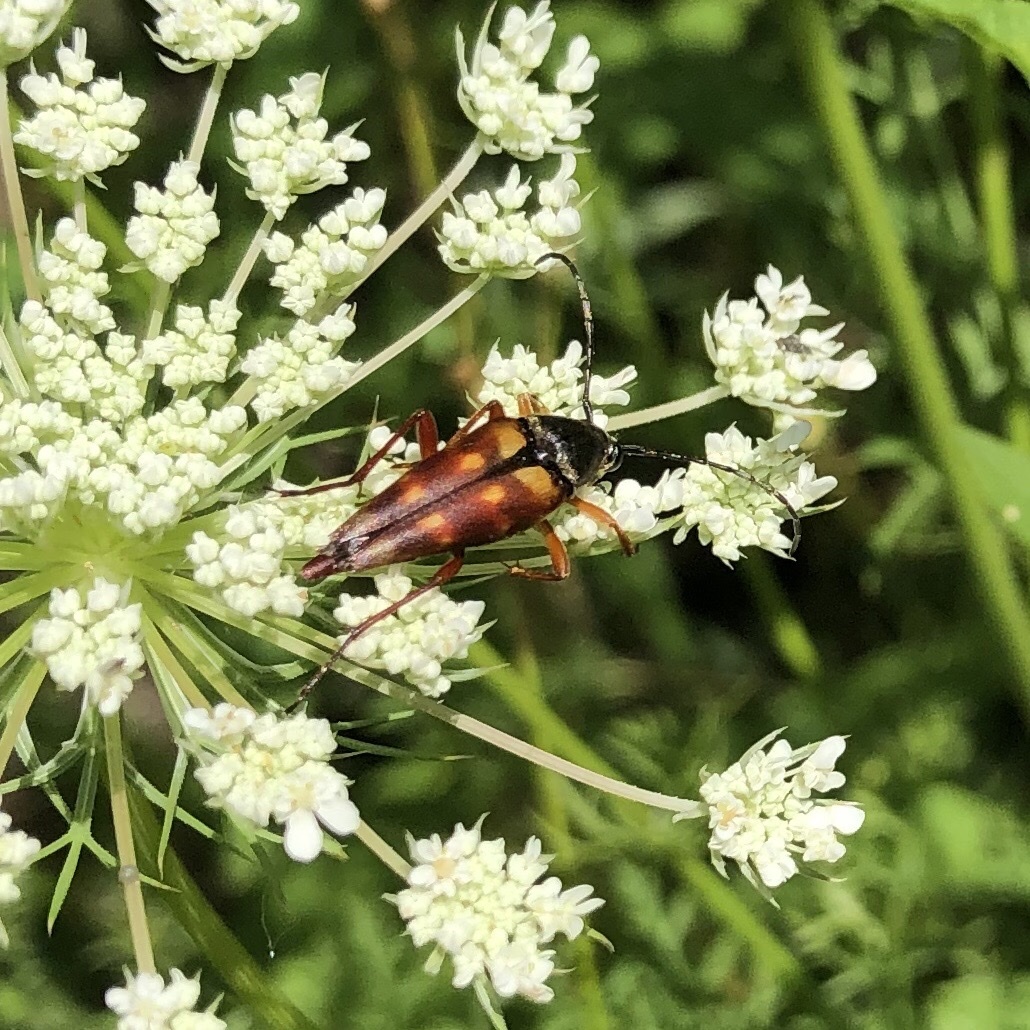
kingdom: Animalia
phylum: Arthropoda
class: Insecta
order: Coleoptera
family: Cerambycidae
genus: Typocerus
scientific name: Typocerus velutinus
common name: Banded longhorn beetle
